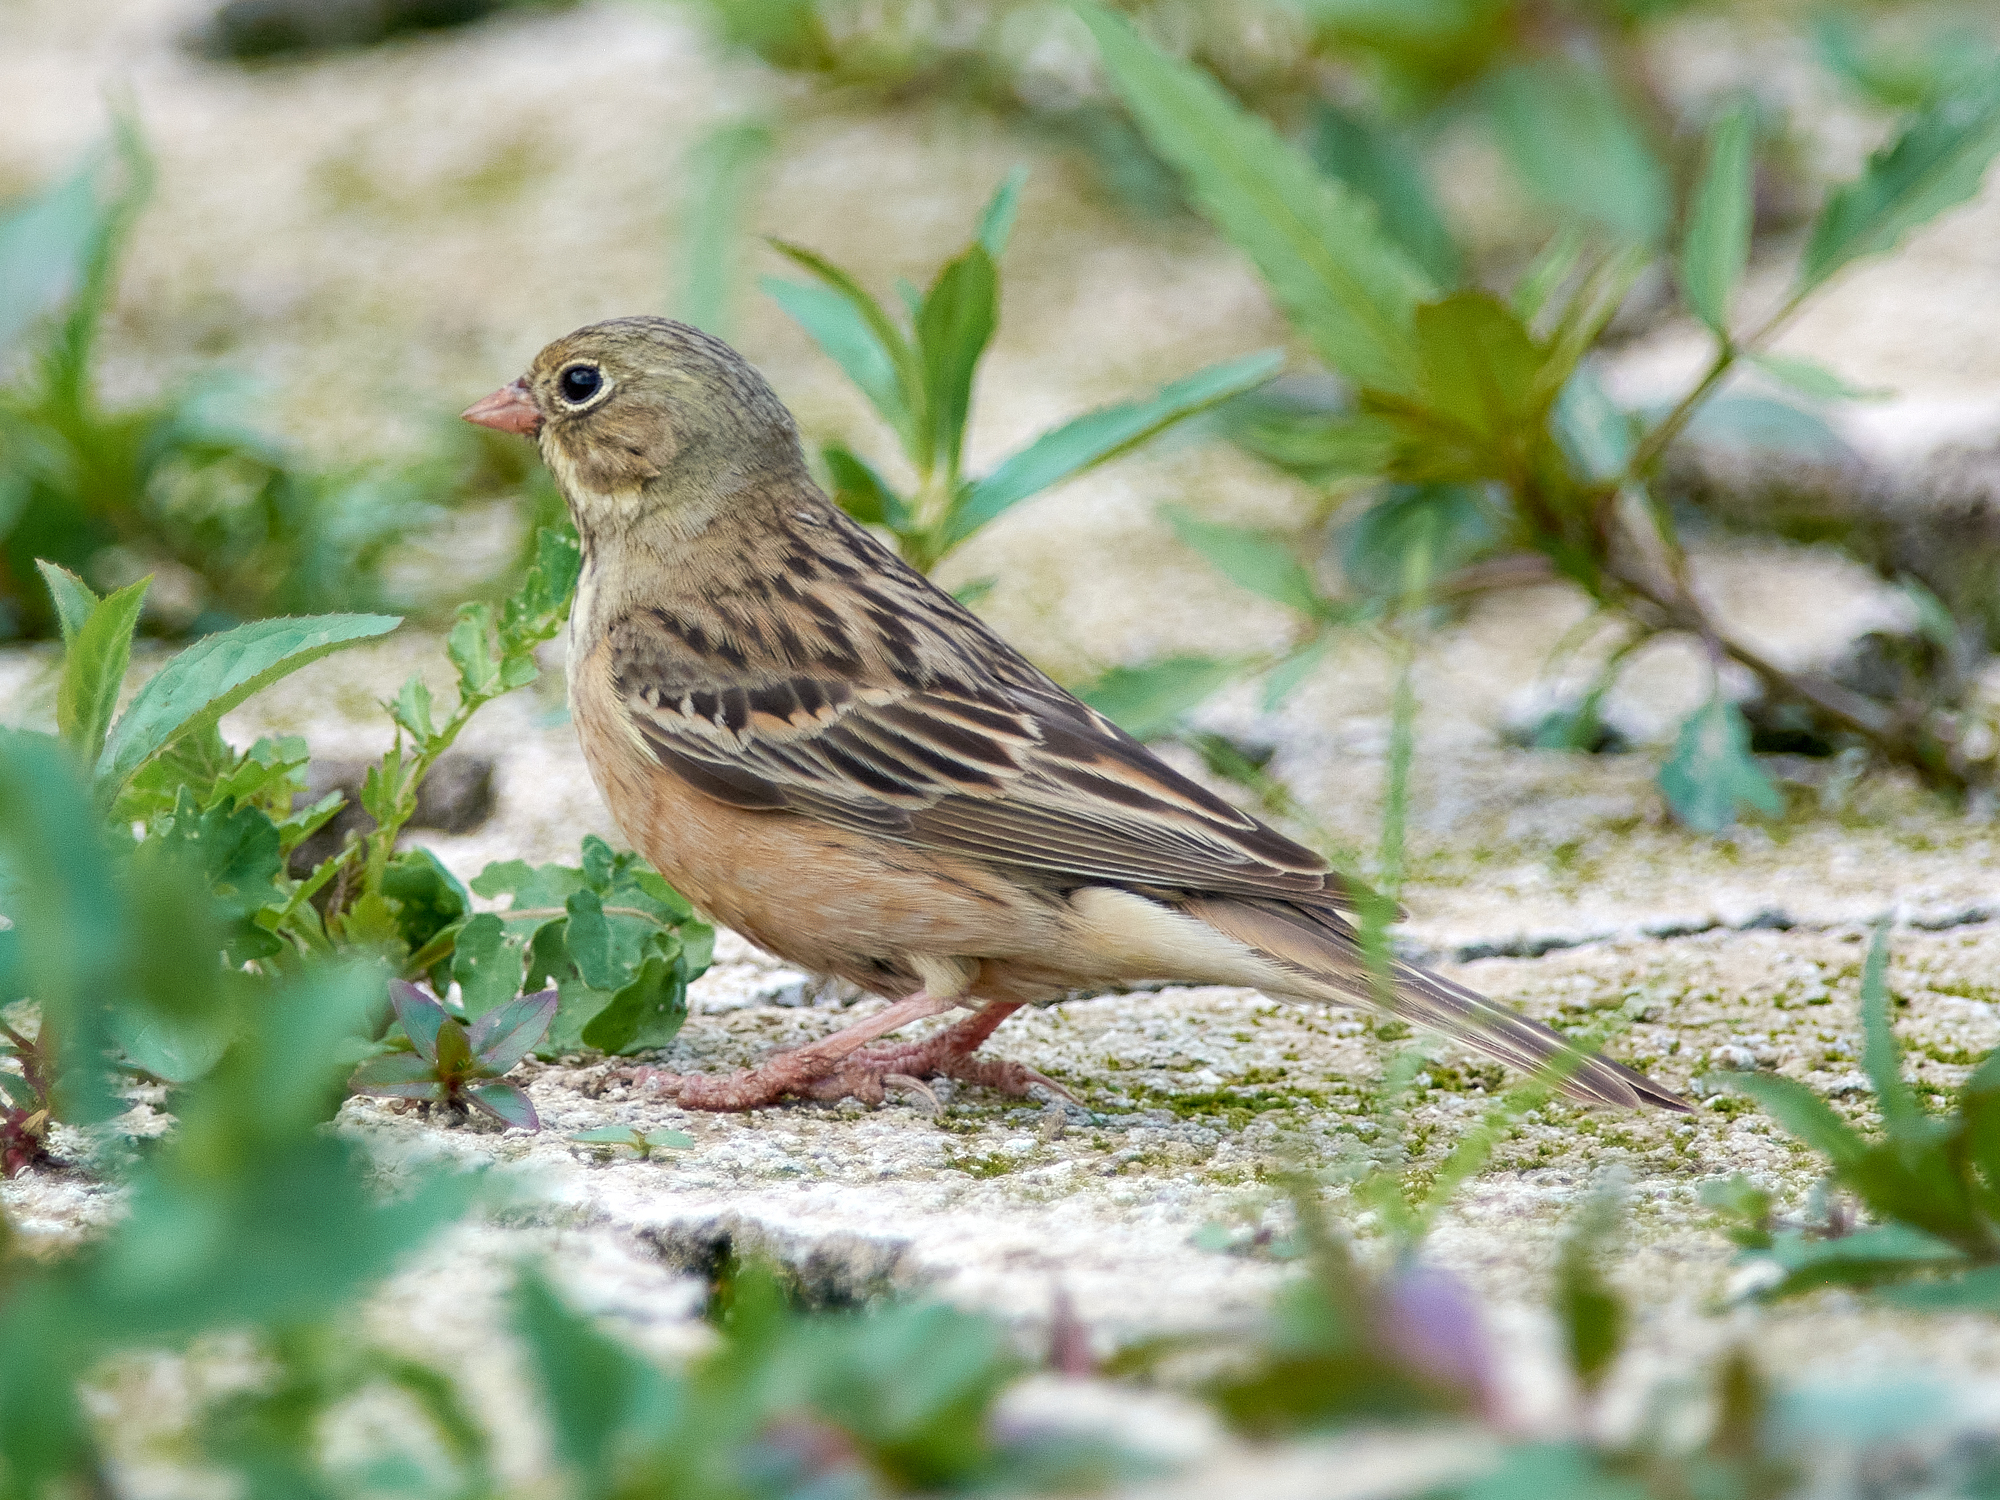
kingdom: Animalia
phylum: Chordata
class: Aves
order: Passeriformes
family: Emberizidae
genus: Emberiza
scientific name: Emberiza hortulana
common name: Ortolan bunting
